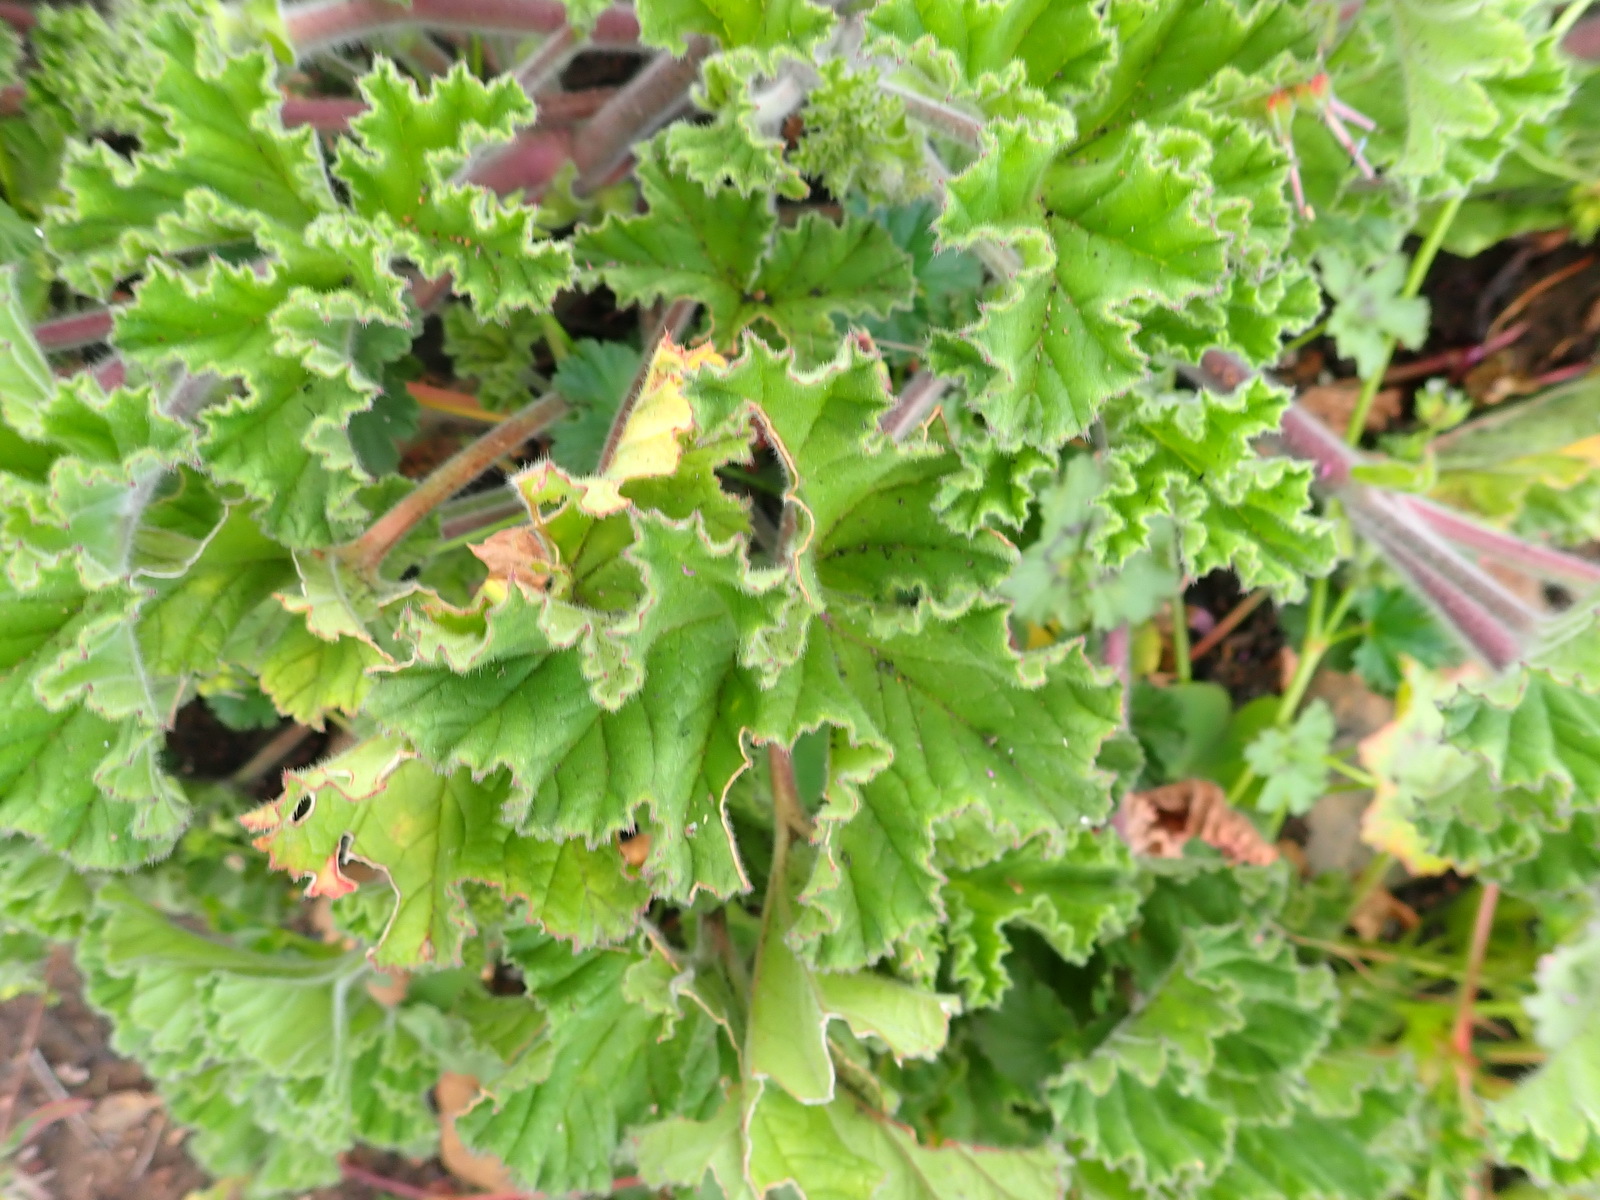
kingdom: Plantae
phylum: Tracheophyta
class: Magnoliopsida
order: Geraniales
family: Geraniaceae
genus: Pelargonium
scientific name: Pelargonium capitatum
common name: Rose scented geranium
